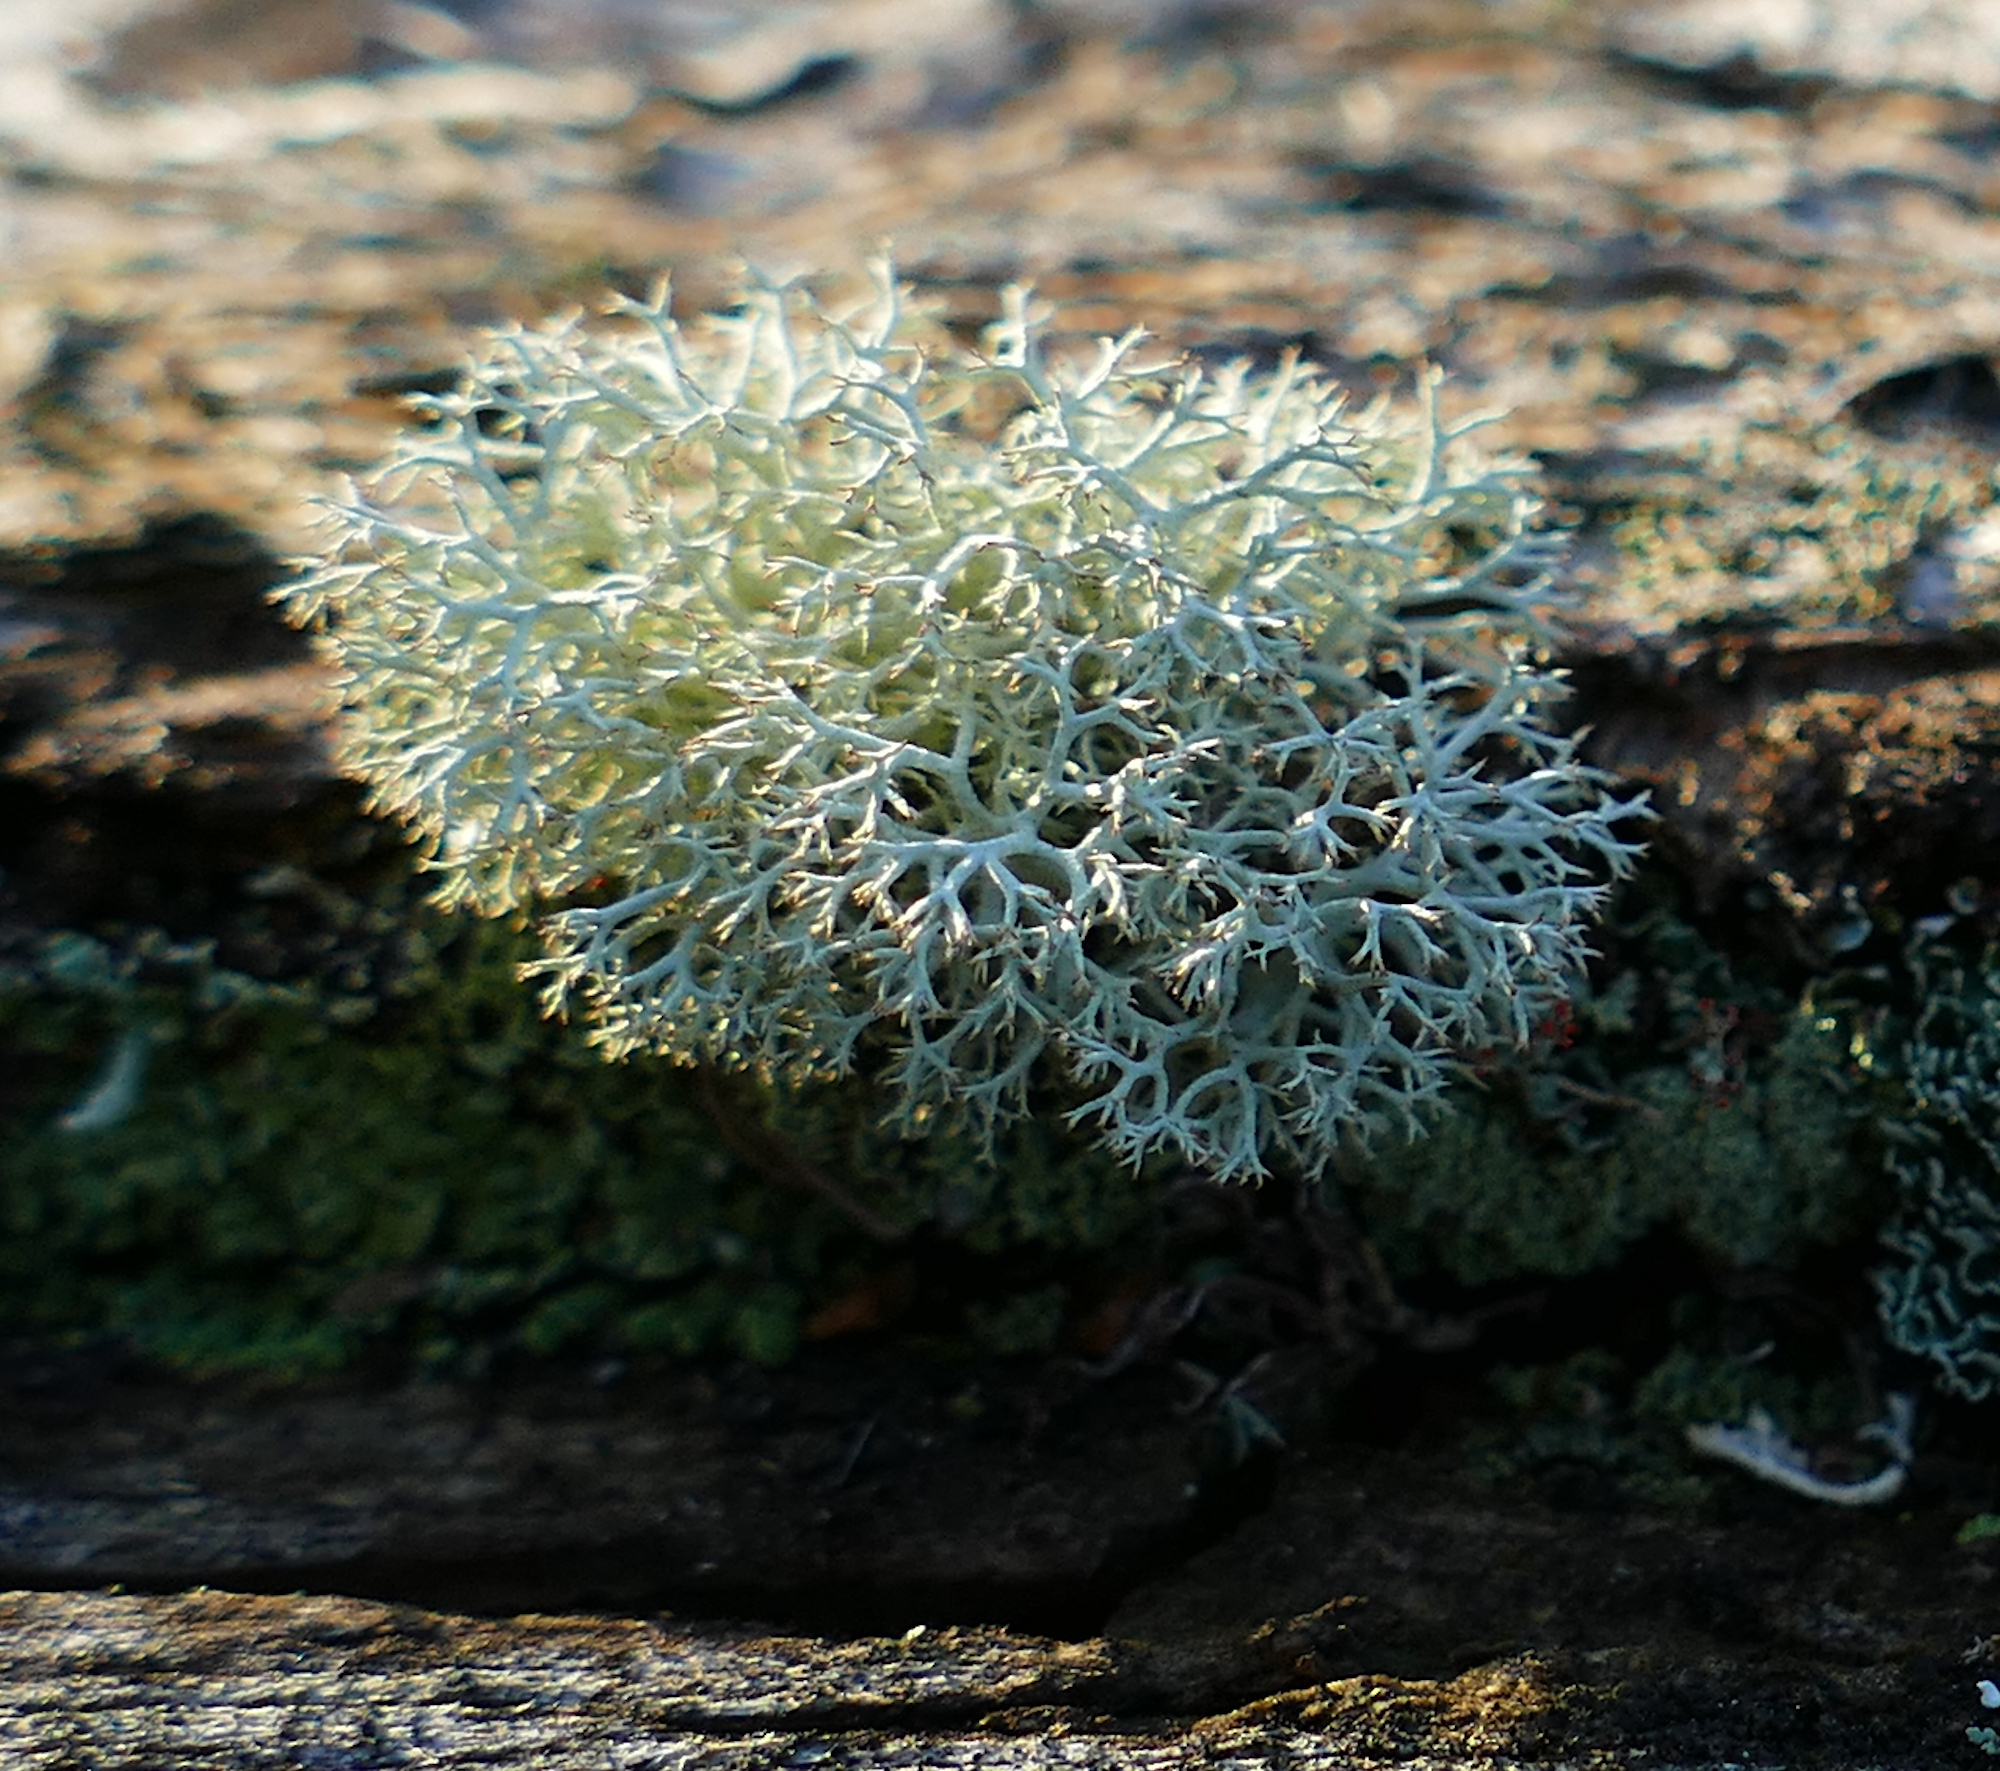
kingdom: Fungi
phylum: Ascomycota
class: Lecanoromycetes
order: Lecanorales
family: Cladoniaceae
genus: Cladonia
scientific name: Cladonia subtenuis
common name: Dixie reindeer lichen
